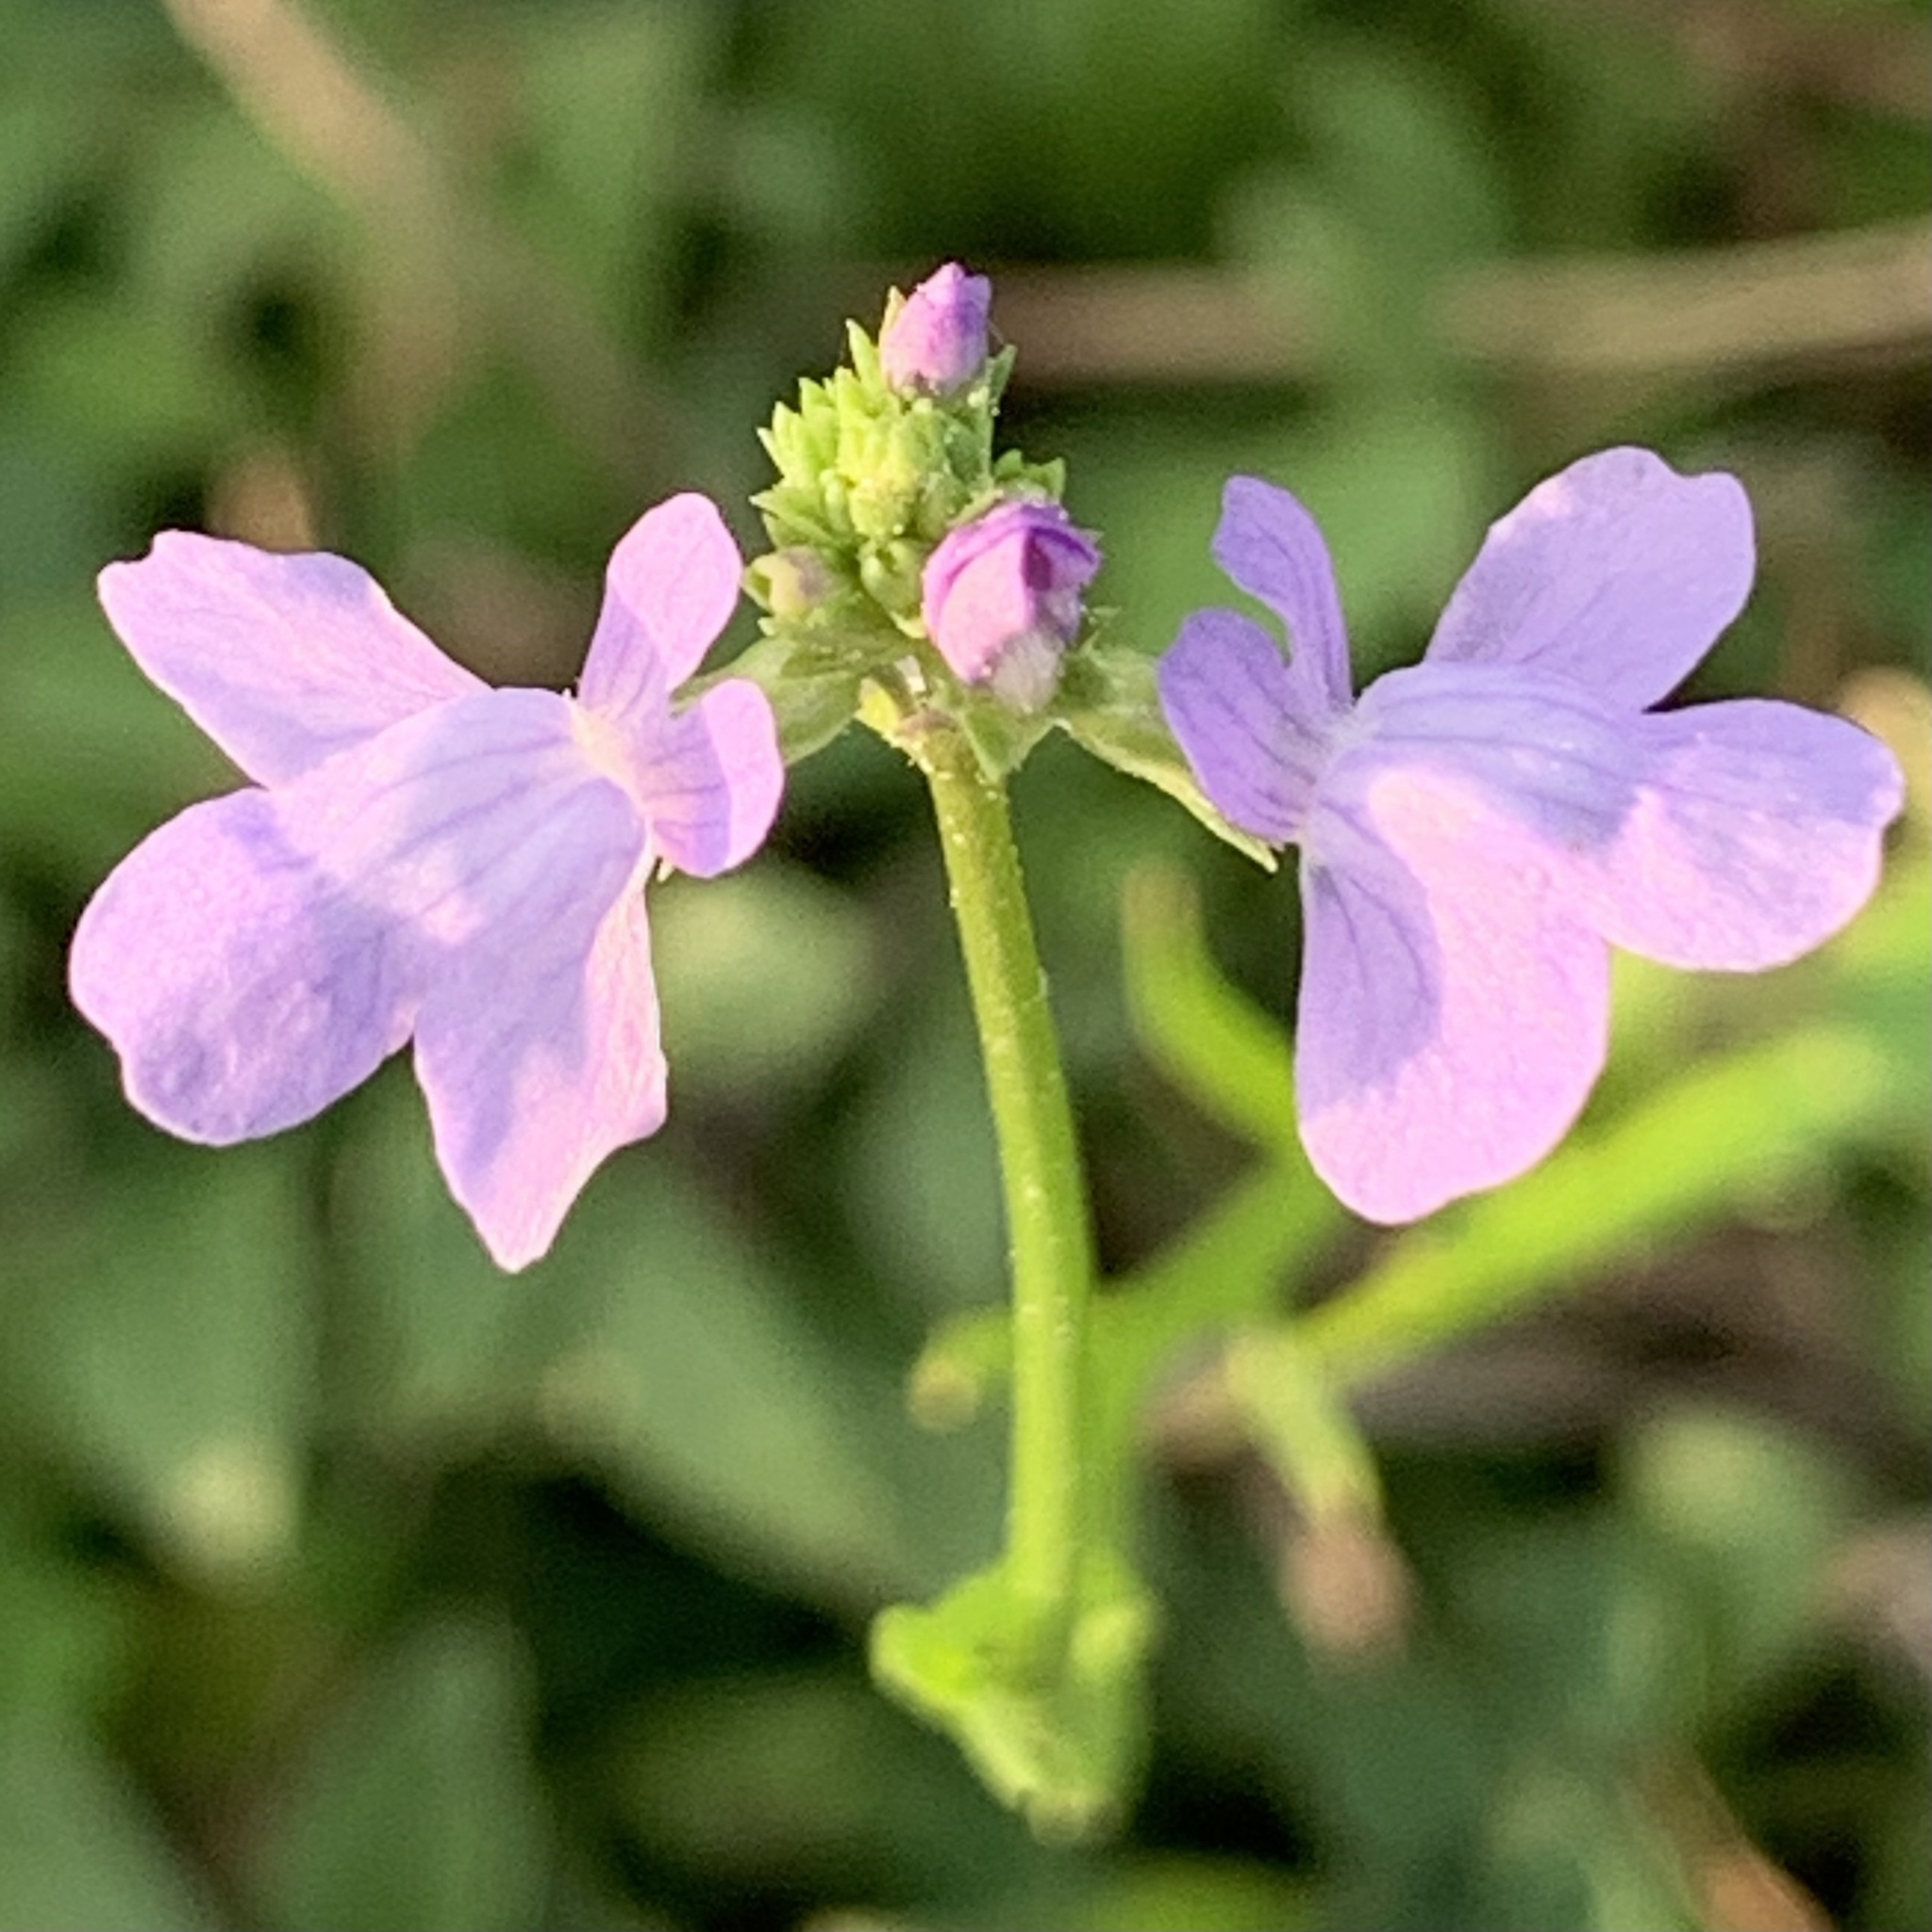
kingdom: Plantae
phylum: Tracheophyta
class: Magnoliopsida
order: Lamiales
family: Plantaginaceae
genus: Nuttallanthus
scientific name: Nuttallanthus texanus
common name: Texas toadflax
